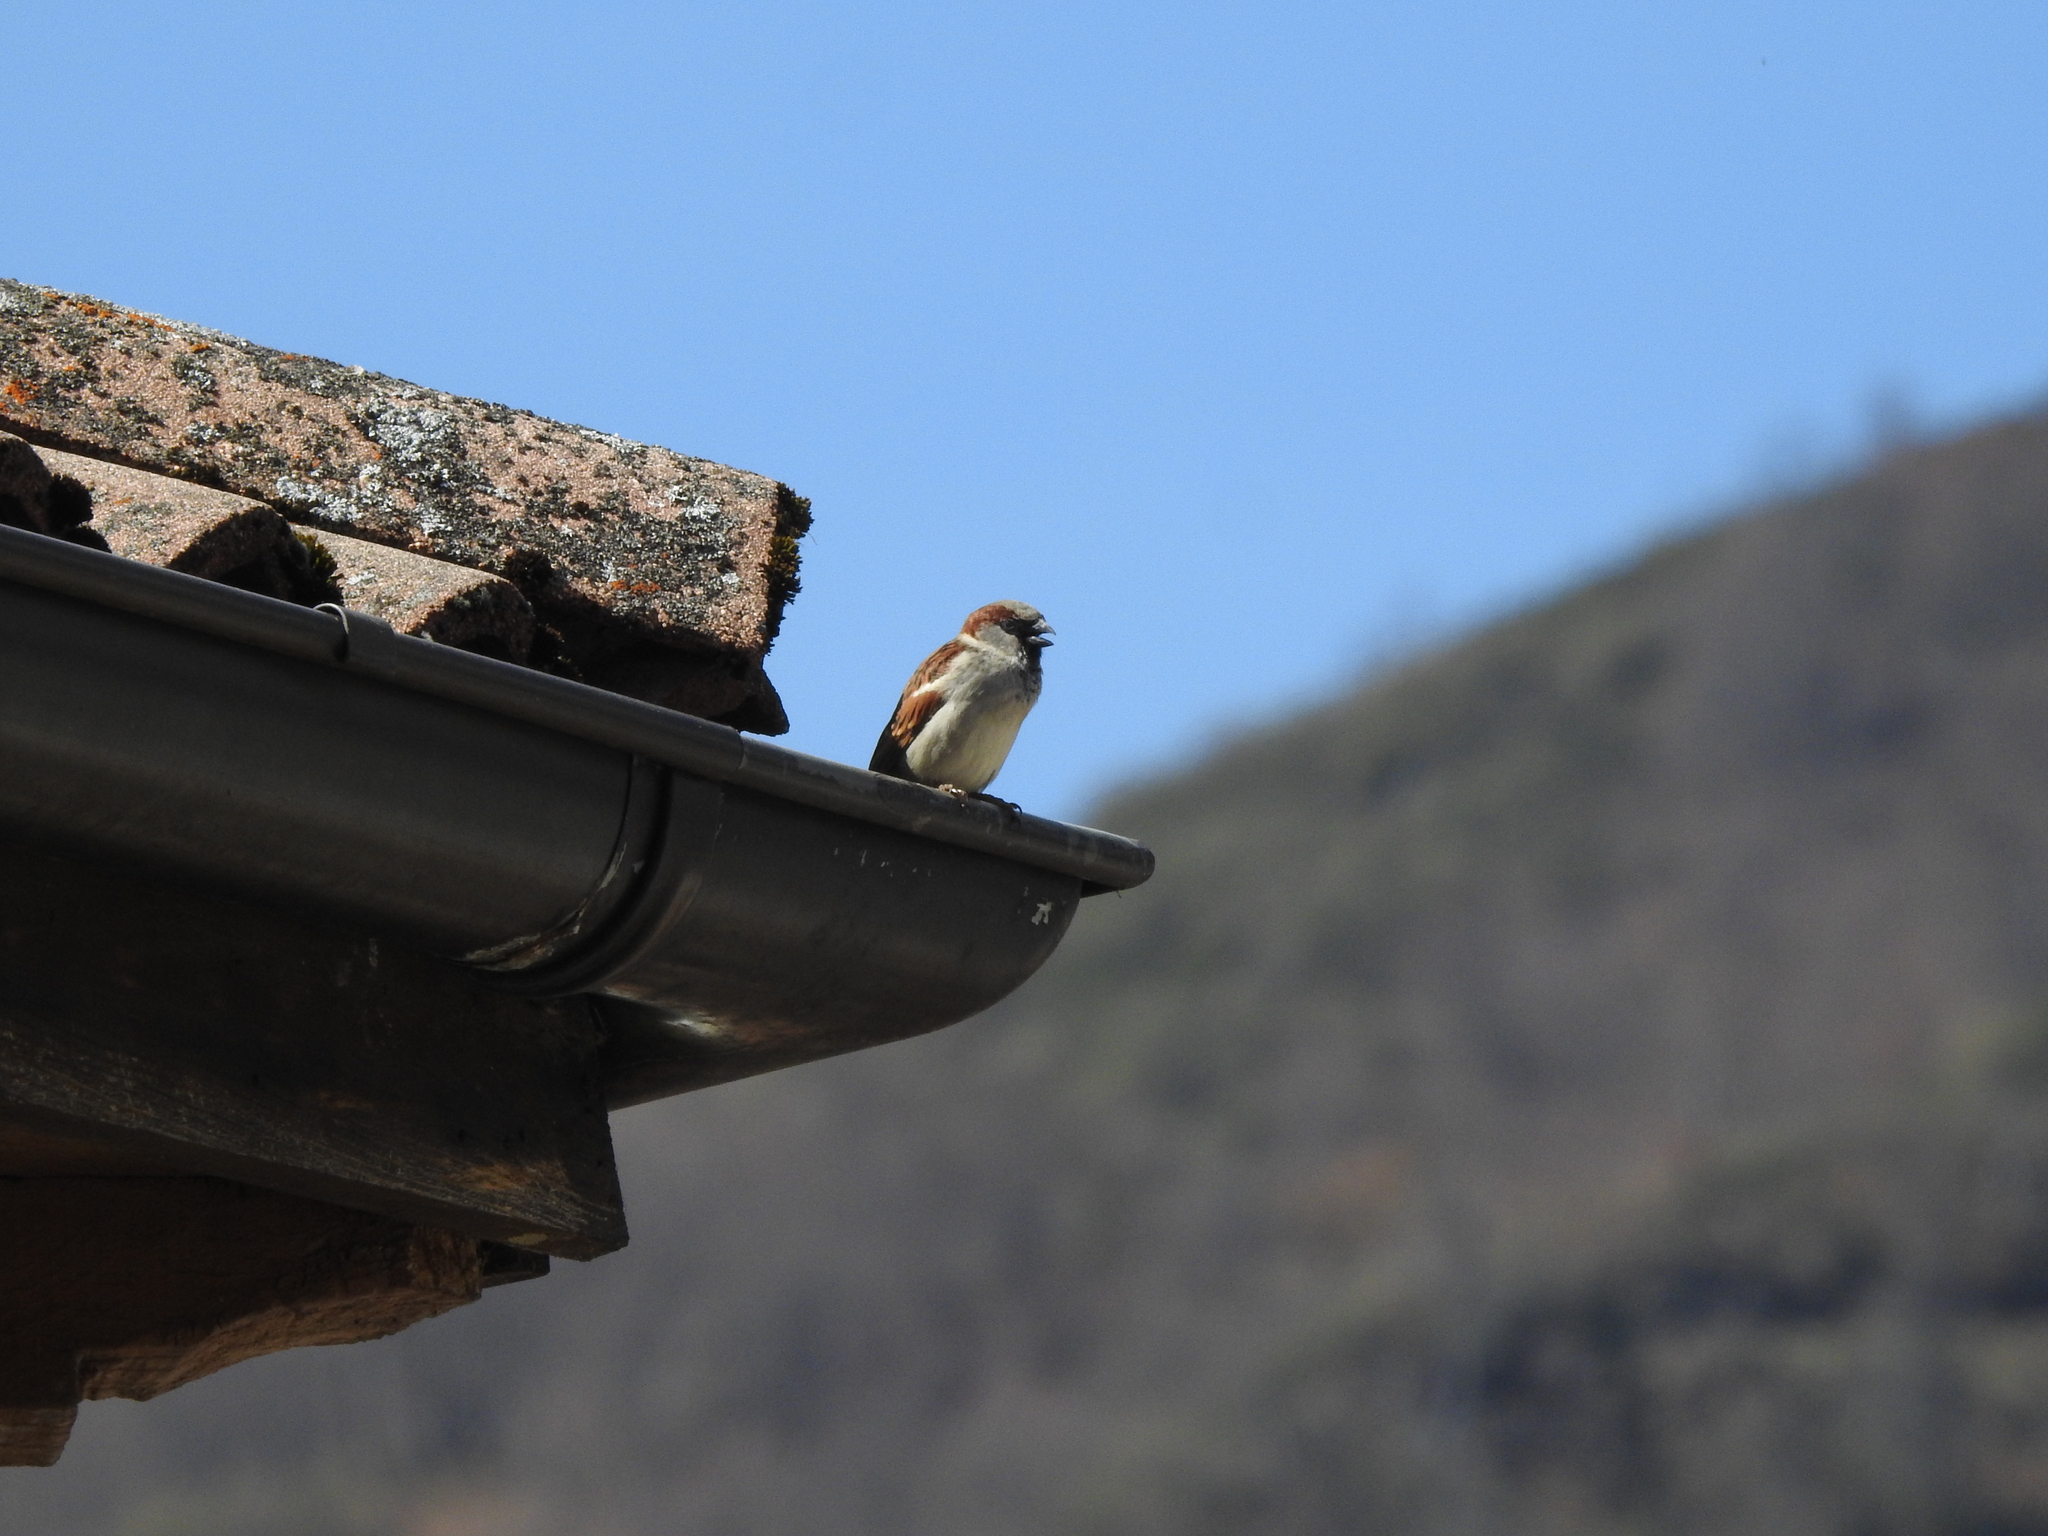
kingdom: Animalia
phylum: Chordata
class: Aves
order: Passeriformes
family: Passeridae
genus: Passer
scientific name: Passer domesticus
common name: House sparrow
